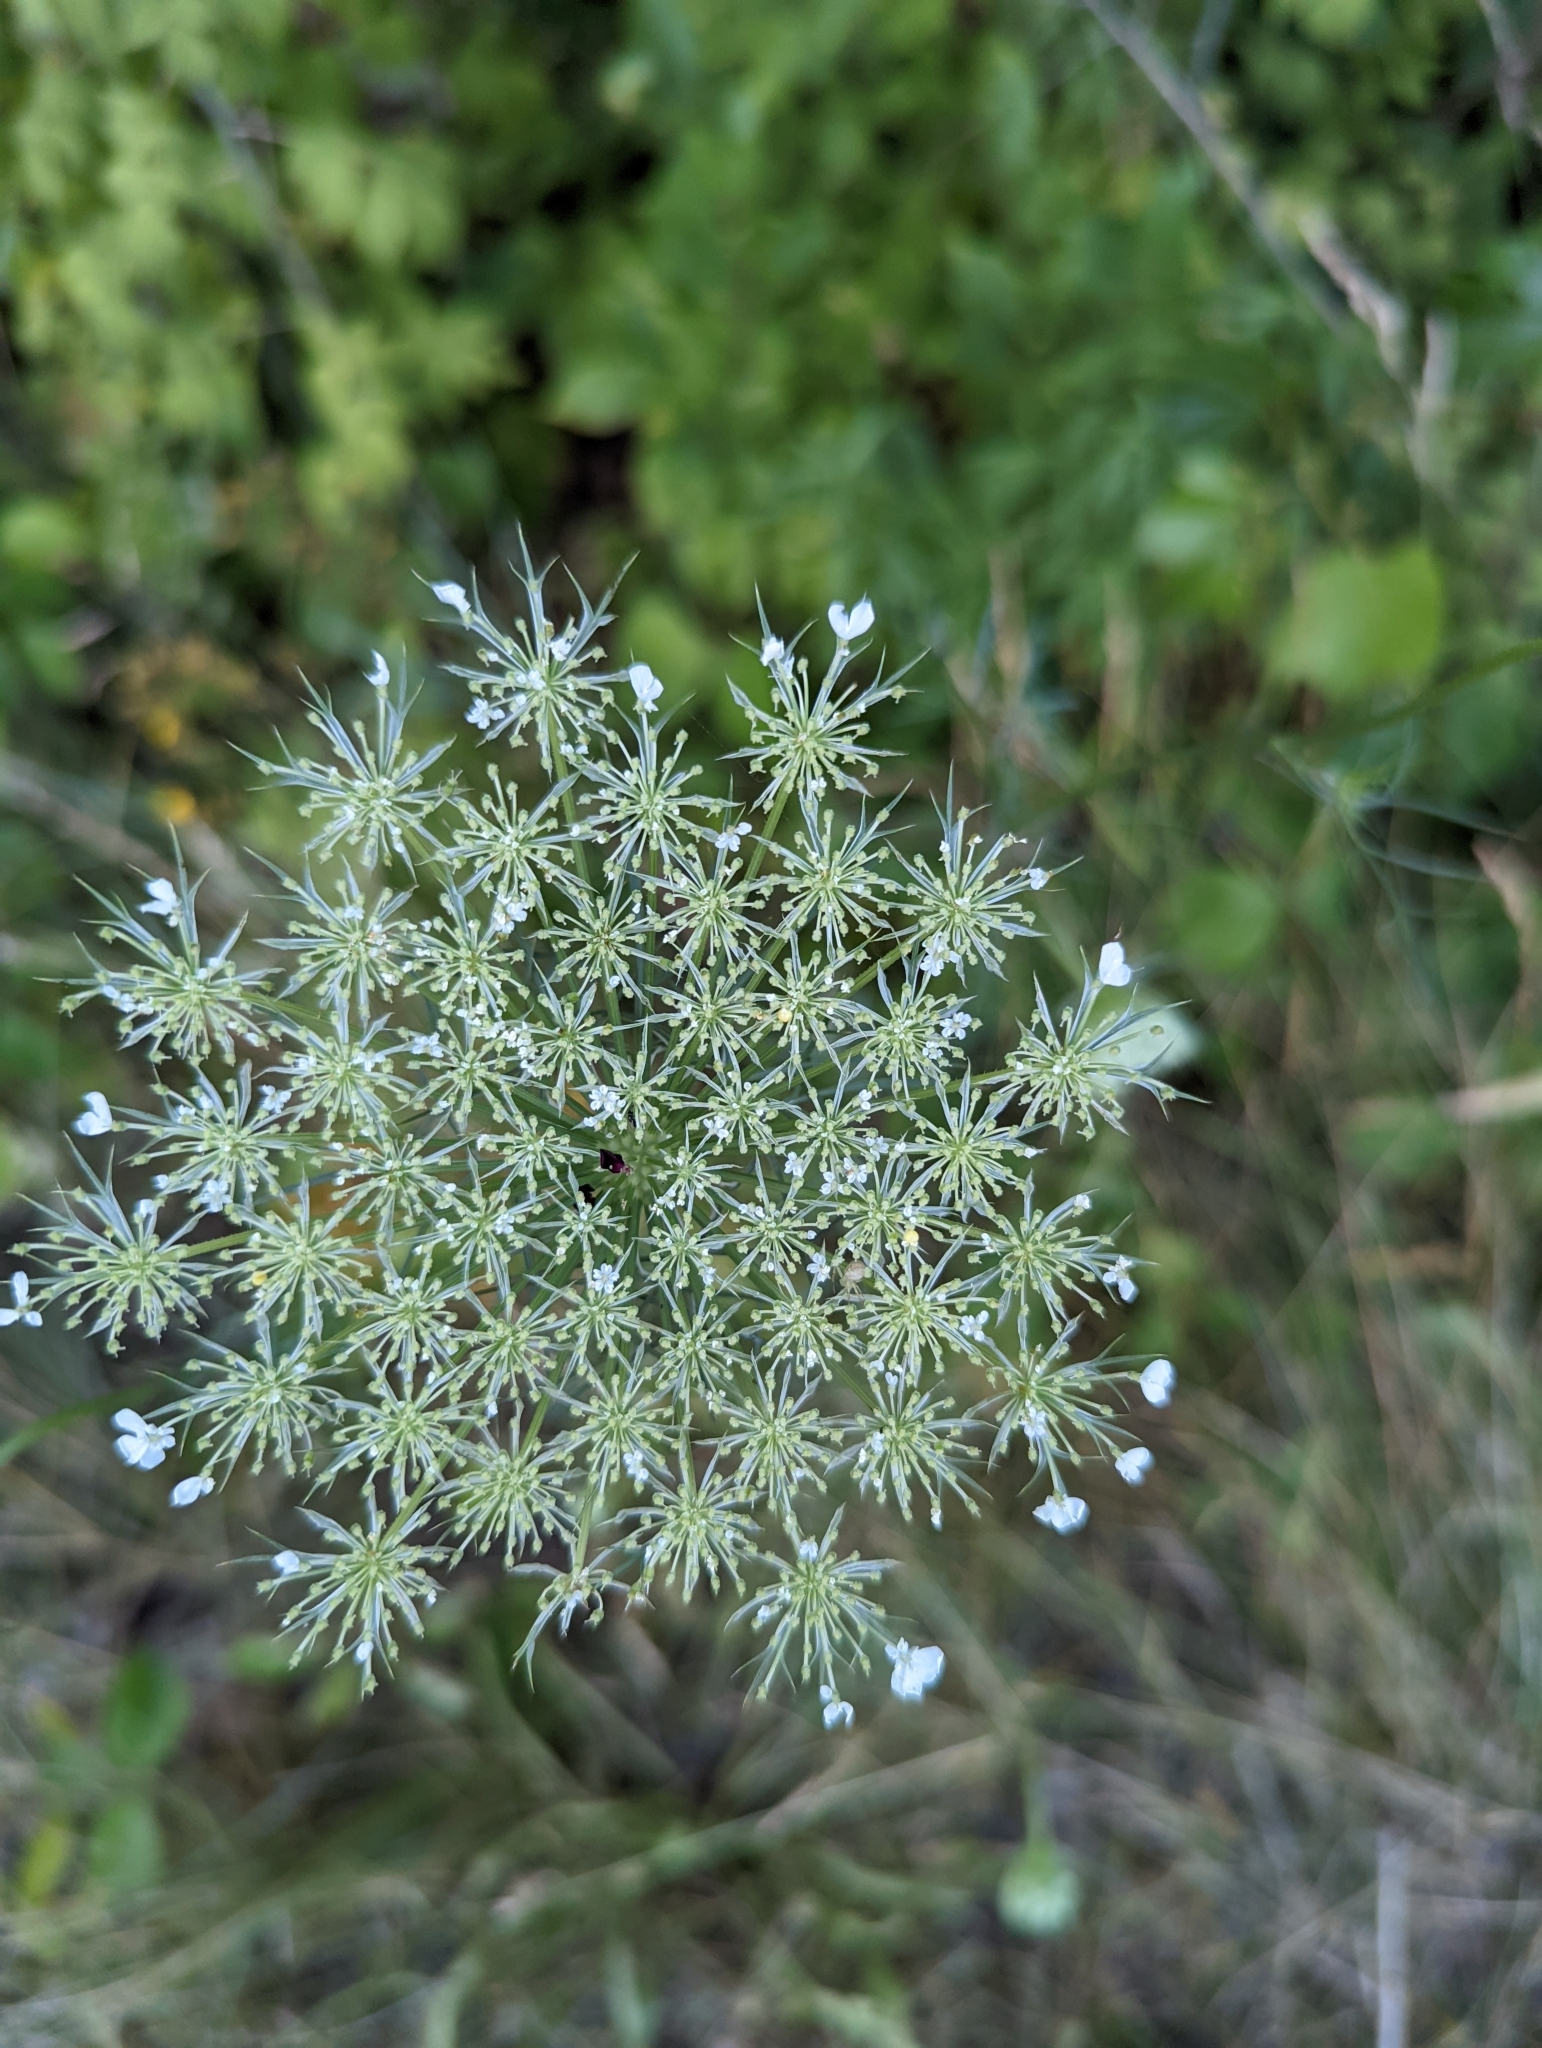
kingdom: Plantae
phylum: Tracheophyta
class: Magnoliopsida
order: Apiales
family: Apiaceae
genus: Daucus
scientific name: Daucus carota
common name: Wild carrot
